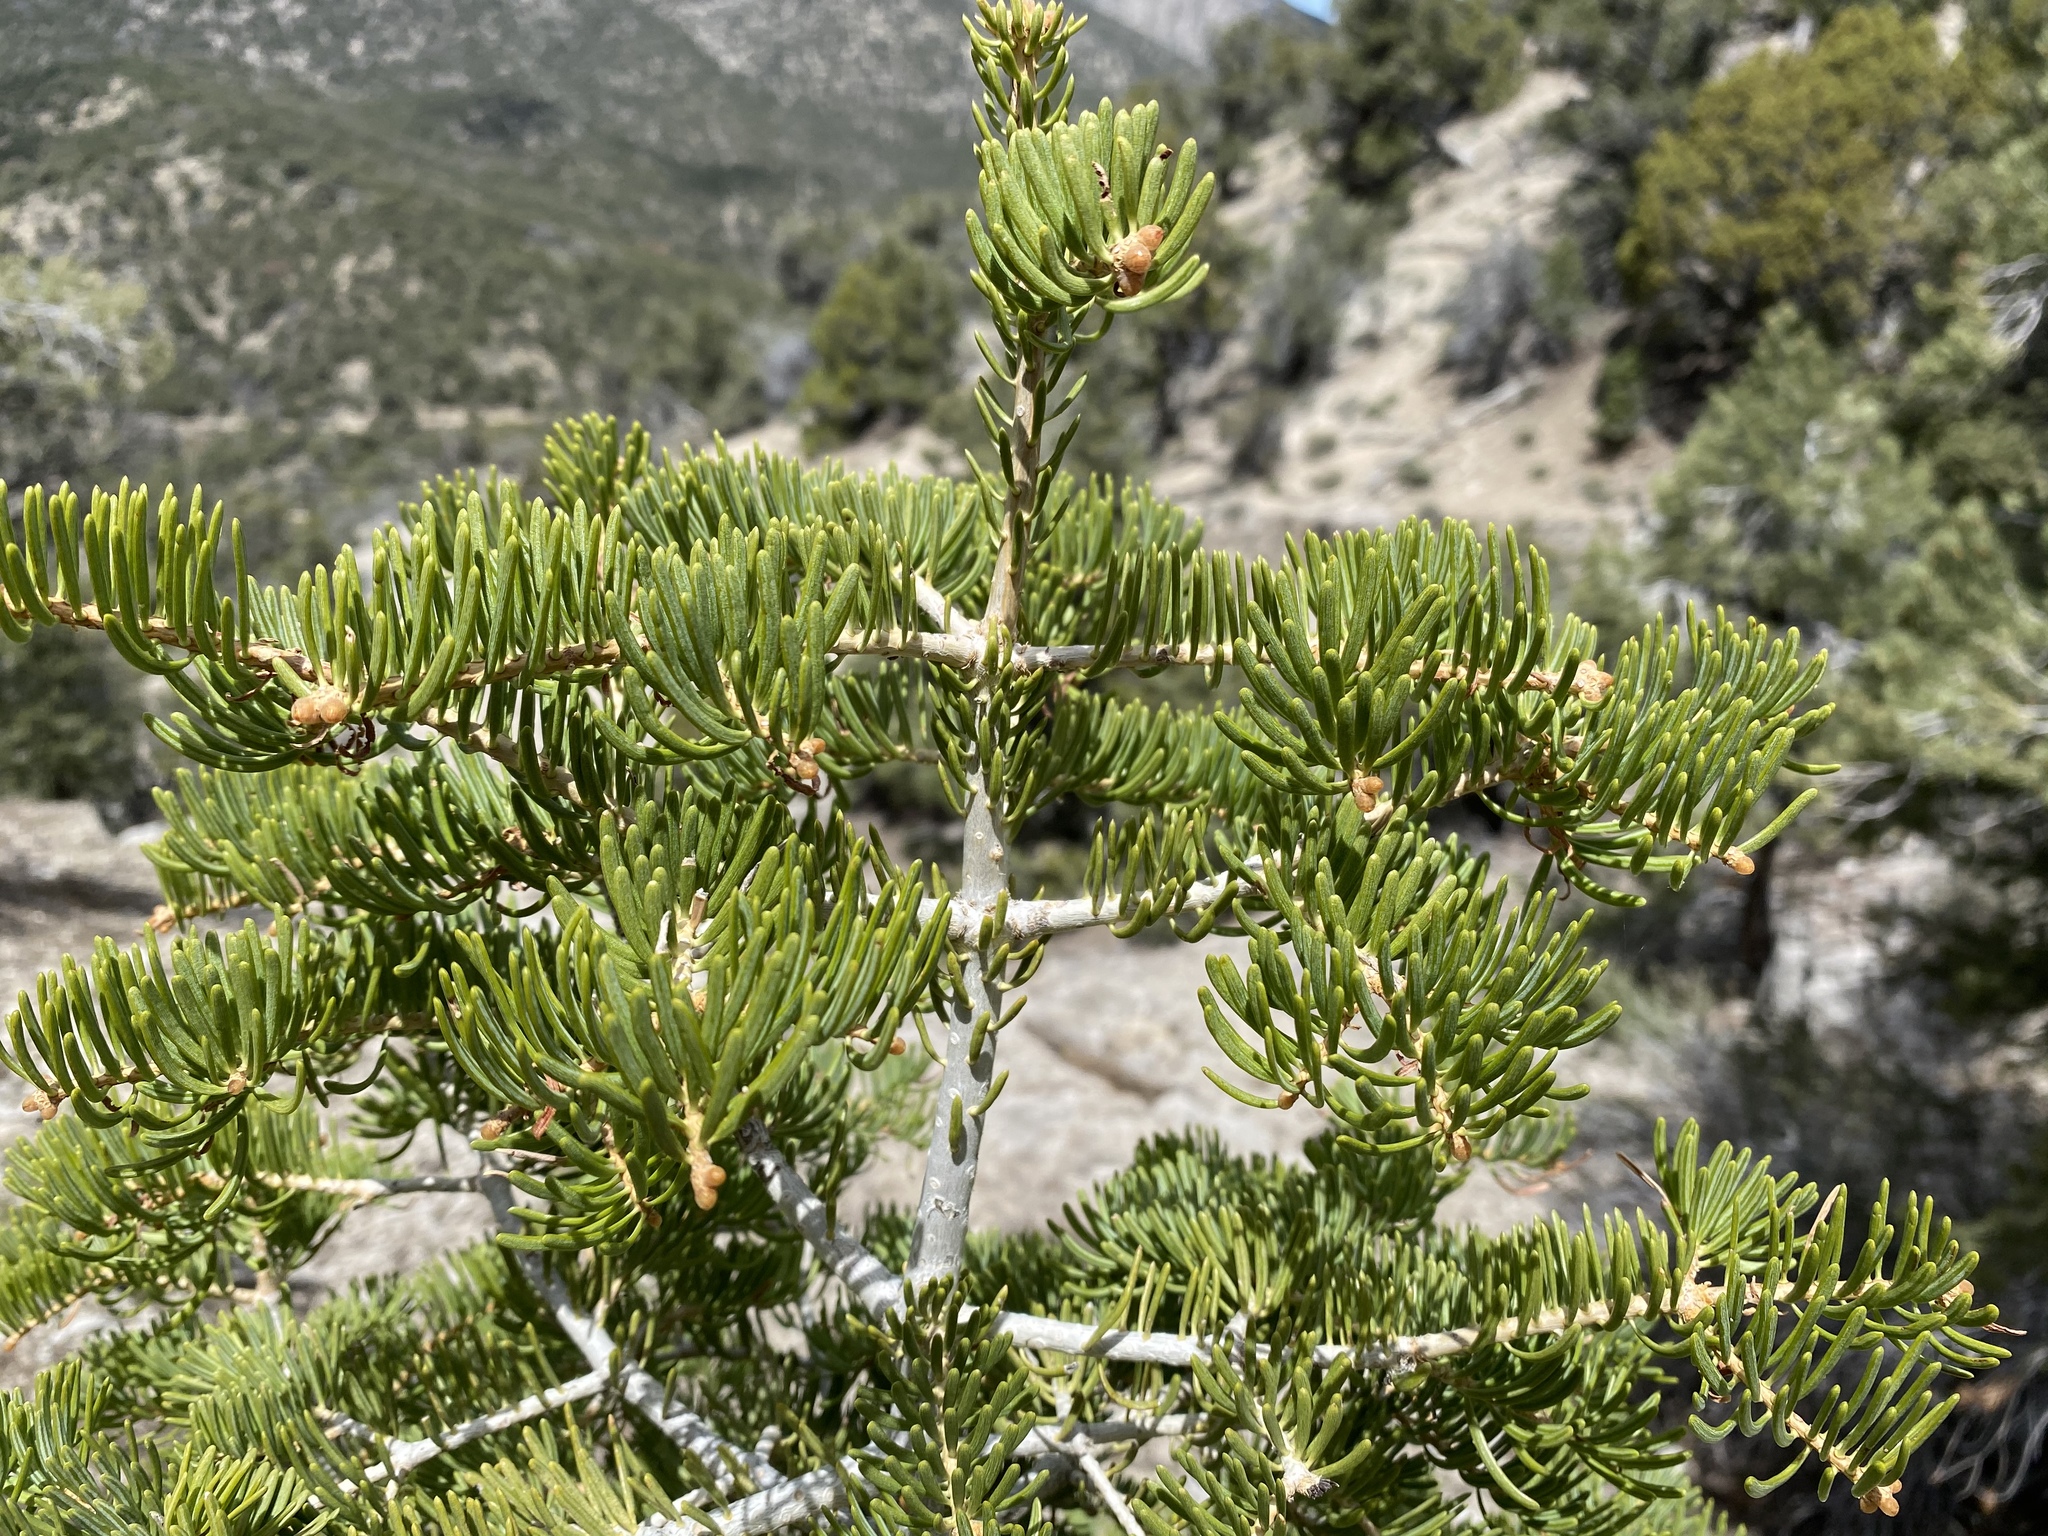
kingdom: Plantae
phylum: Tracheophyta
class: Pinopsida
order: Pinales
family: Pinaceae
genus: Abies
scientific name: Abies concolor
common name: Colorado fir
